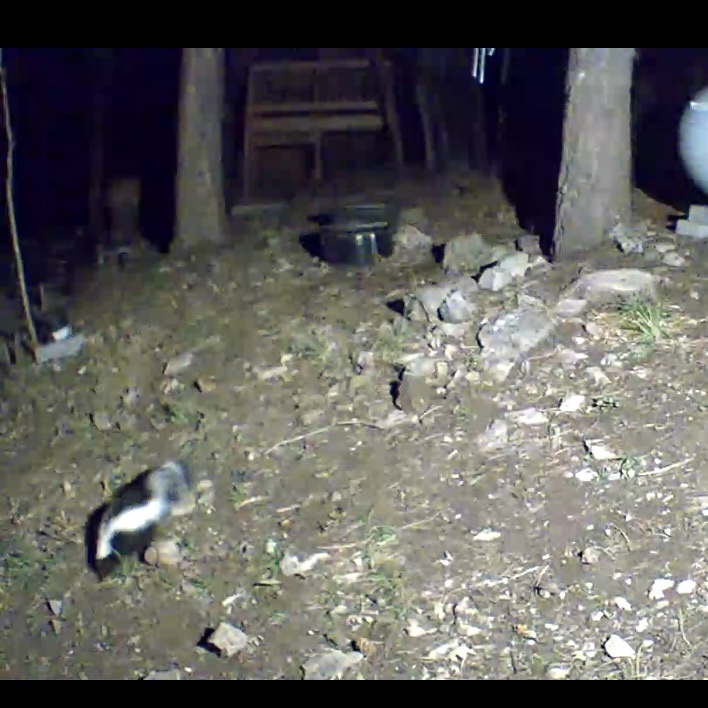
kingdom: Animalia
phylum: Chordata
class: Mammalia
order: Carnivora
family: Mephitidae
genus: Mephitis
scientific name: Mephitis mephitis
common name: Striped skunk
